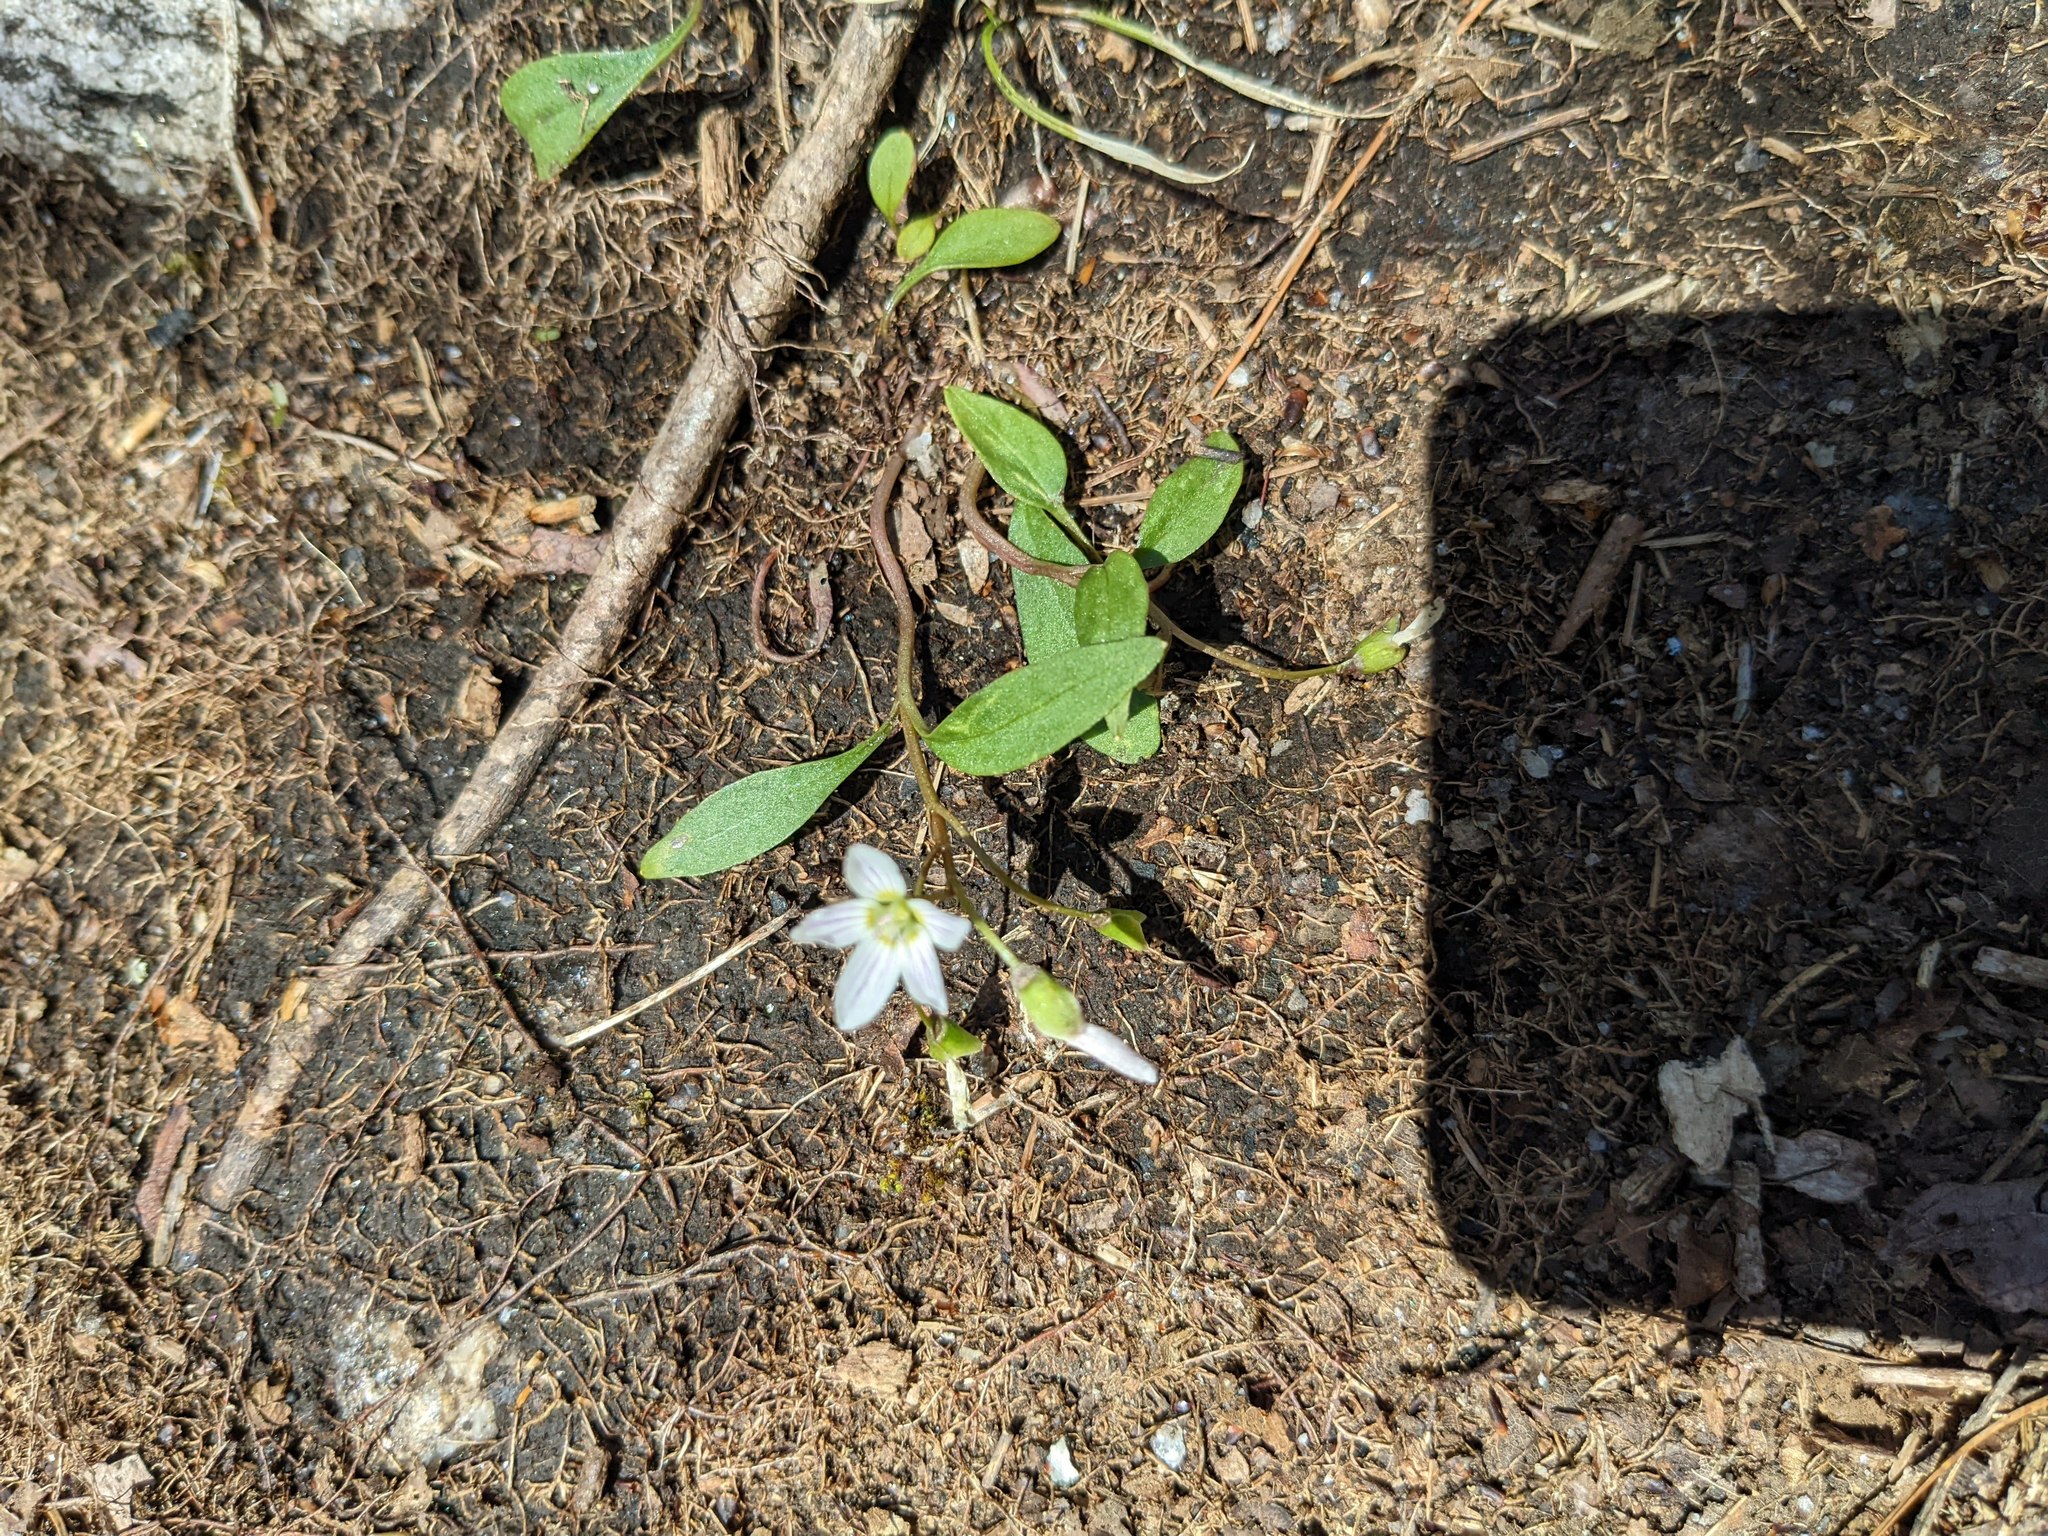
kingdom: Plantae
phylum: Tracheophyta
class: Magnoliopsida
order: Caryophyllales
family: Montiaceae
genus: Claytonia
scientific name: Claytonia caroliniana
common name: Carolina spring beauty
